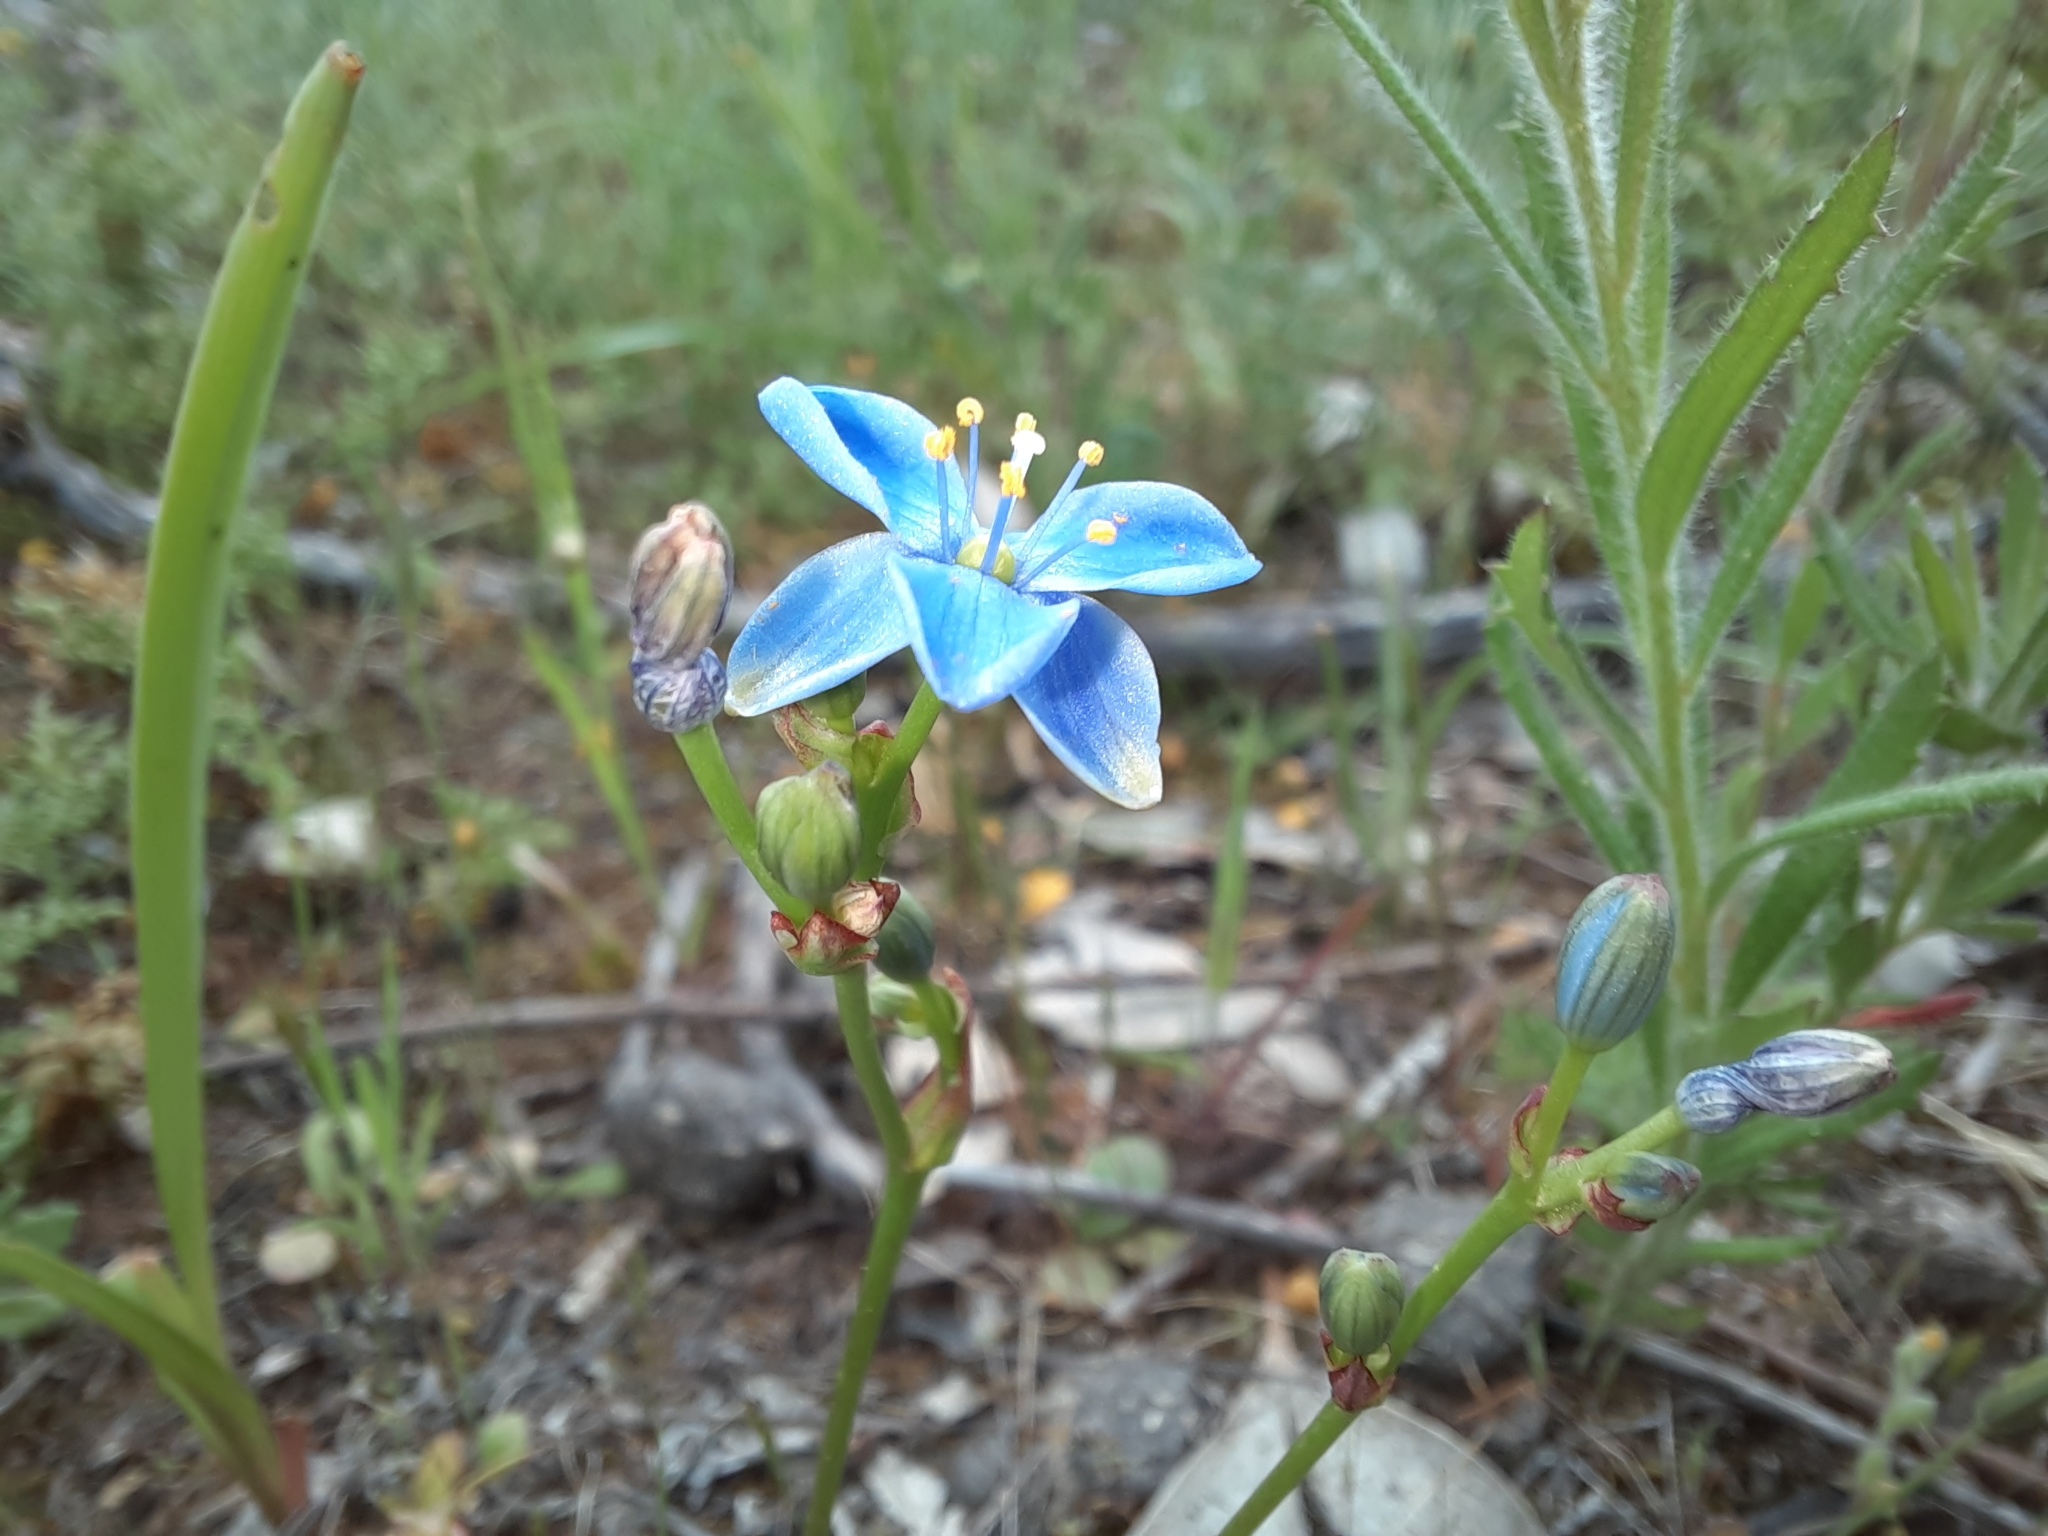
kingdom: Plantae
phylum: Tracheophyta
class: Liliopsida
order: Asparagales
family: Asphodelaceae
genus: Chamaescilla
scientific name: Chamaescilla corymbosa
